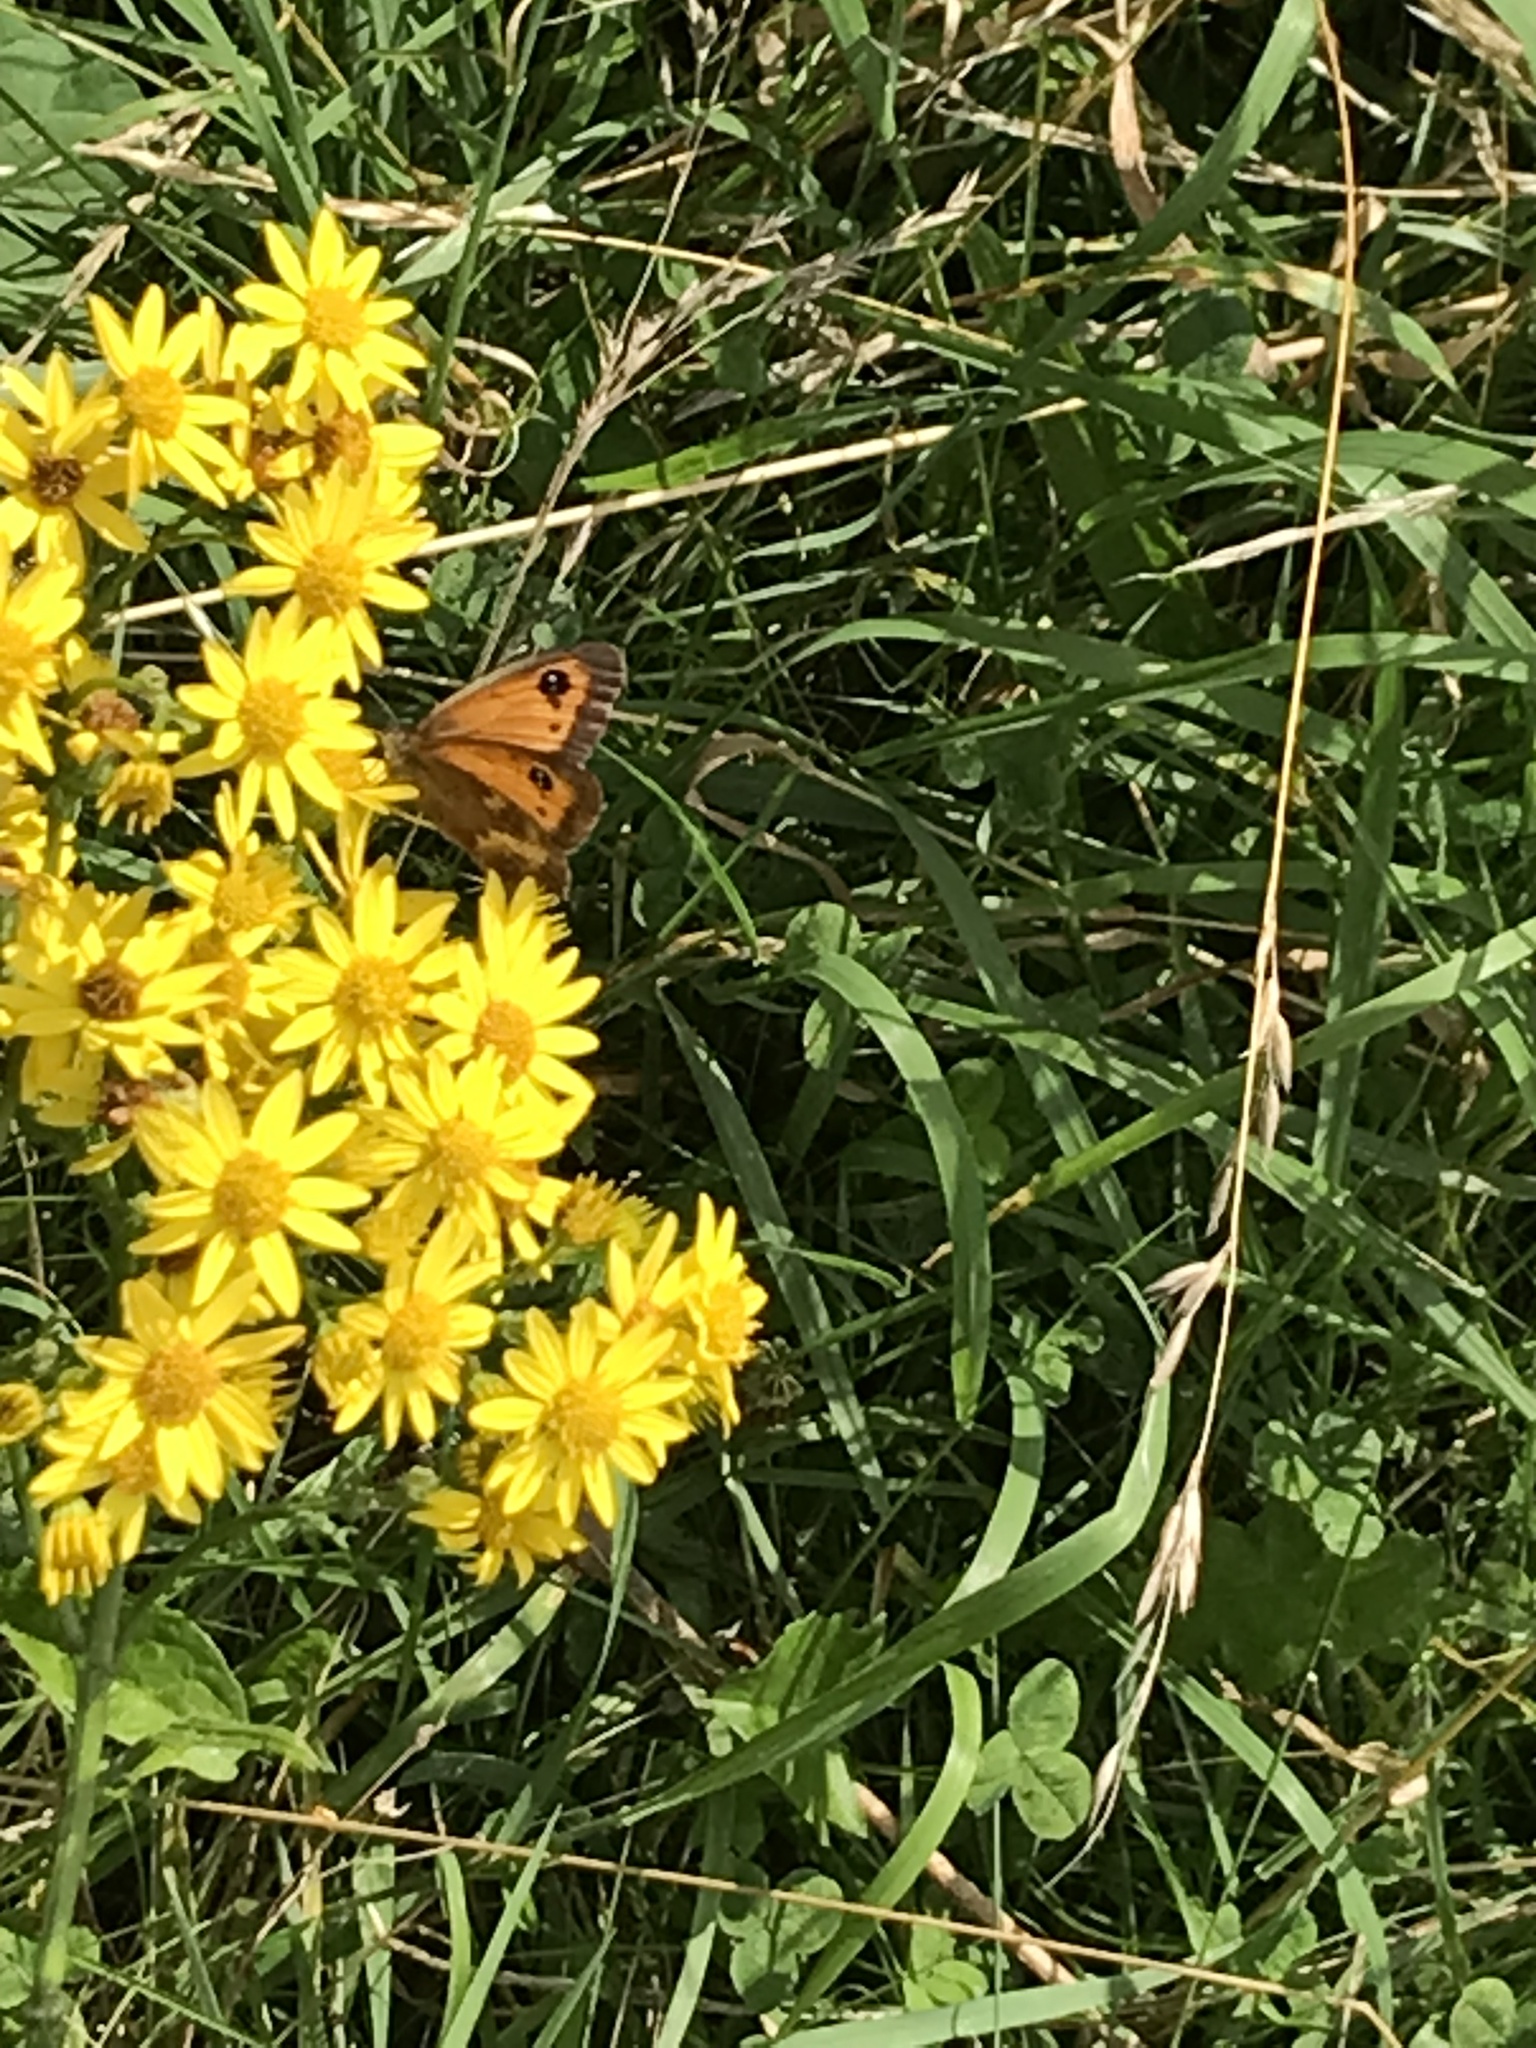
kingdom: Animalia
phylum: Arthropoda
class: Insecta
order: Lepidoptera
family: Nymphalidae
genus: Pyronia
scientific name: Pyronia tithonus
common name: Gatekeeper
